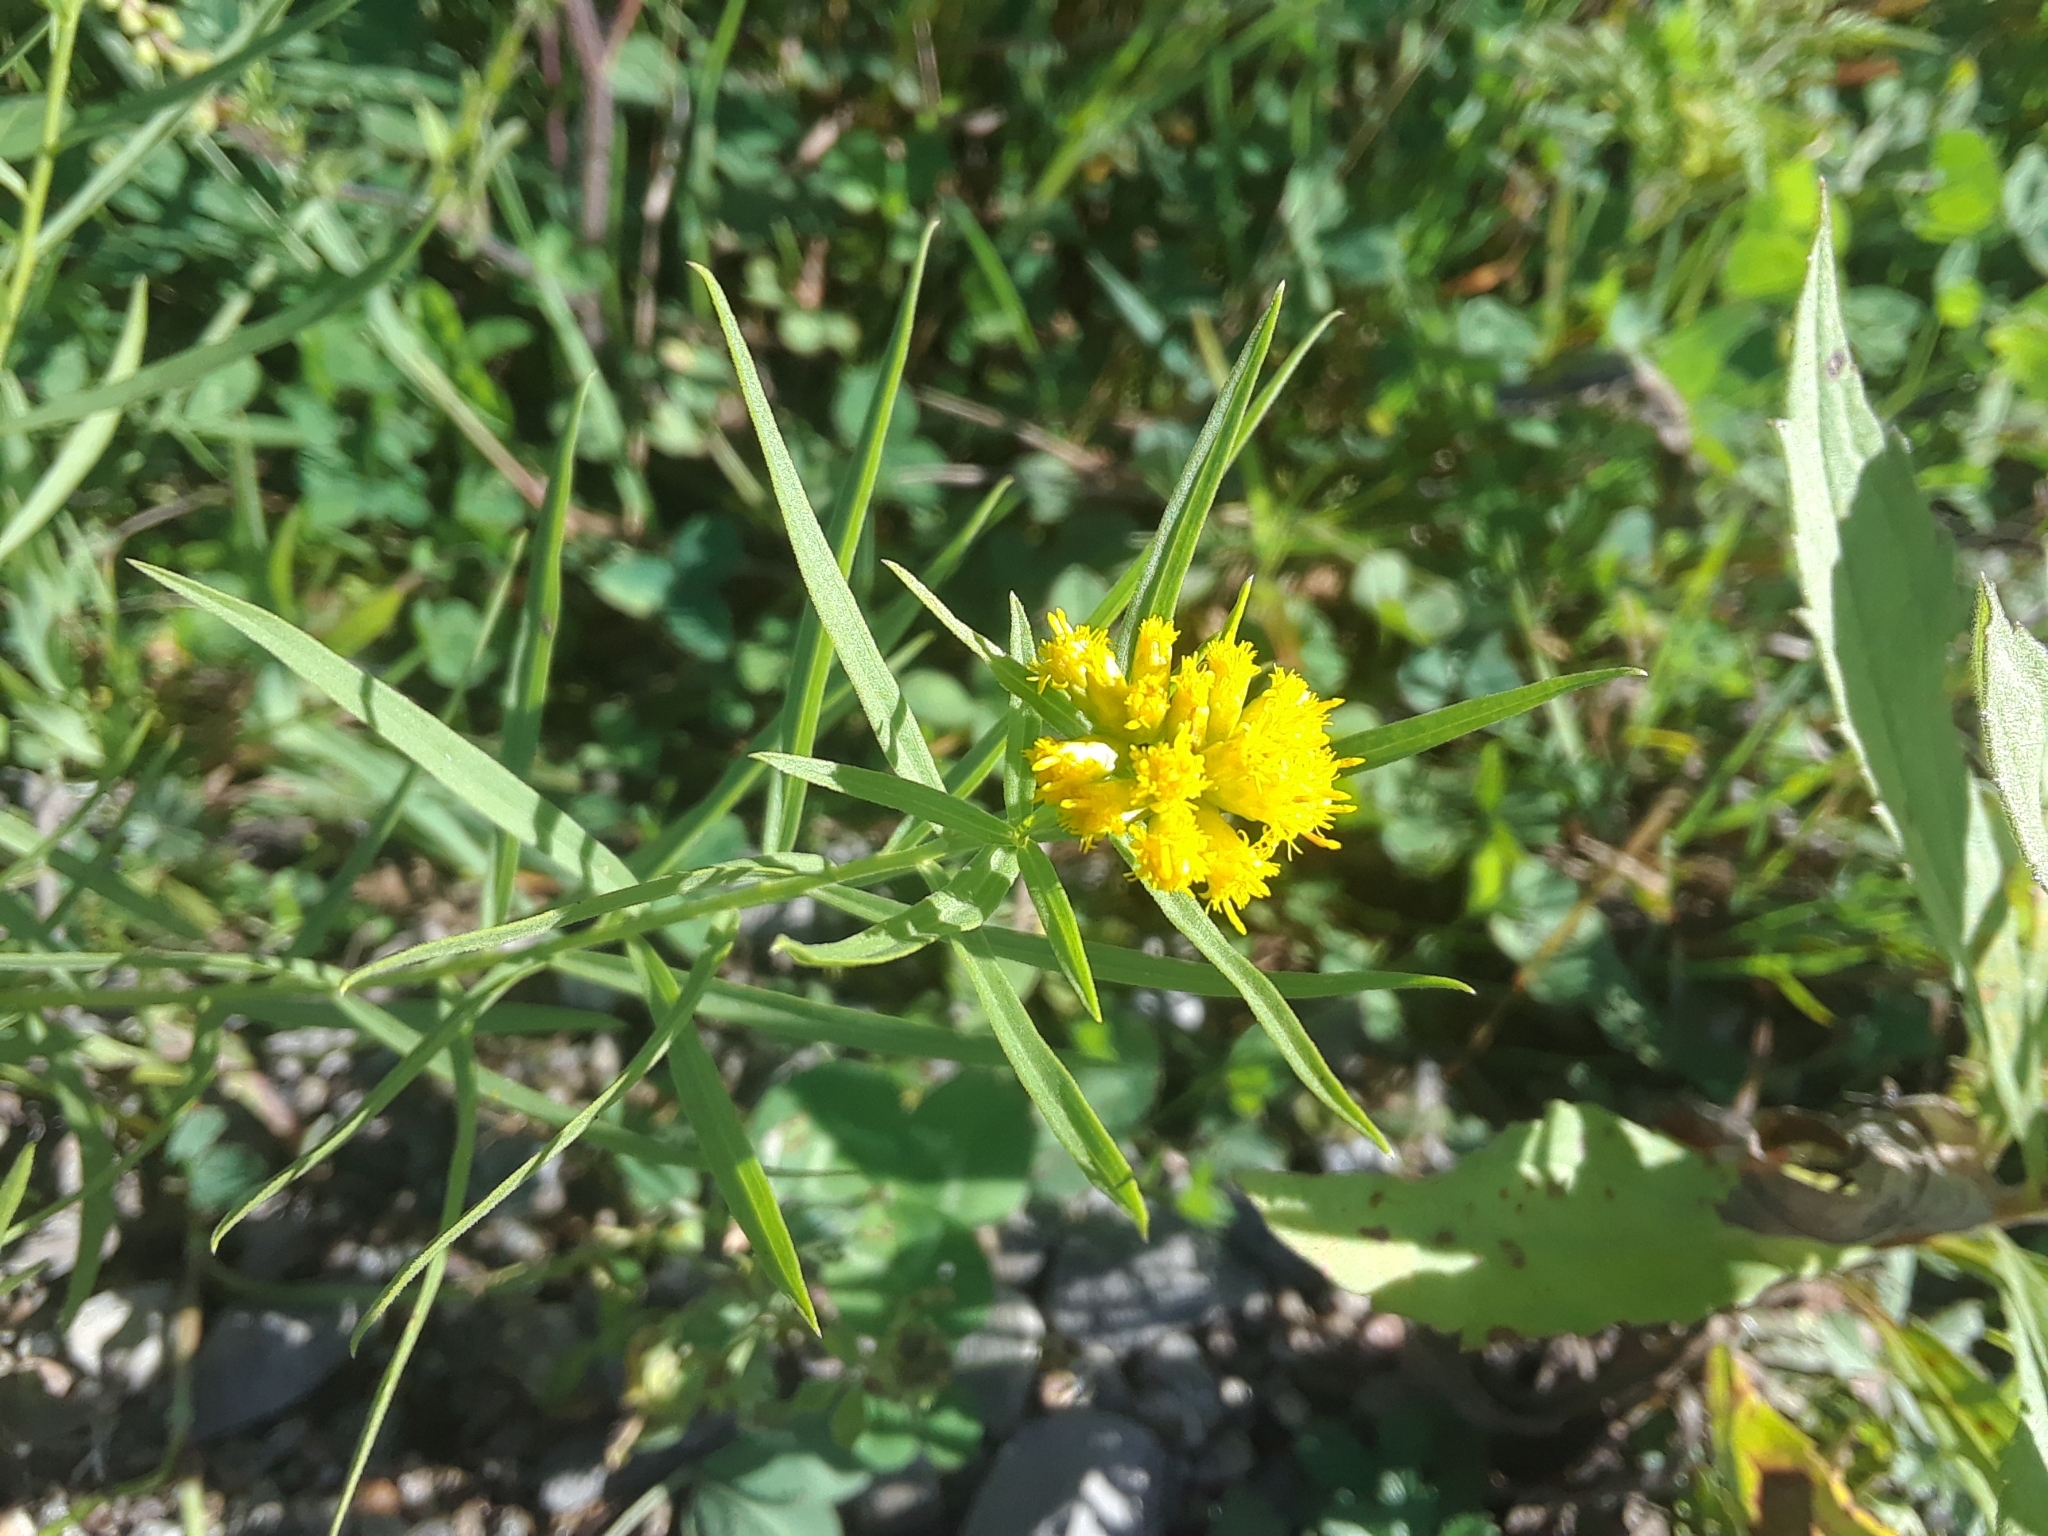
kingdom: Plantae
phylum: Tracheophyta
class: Magnoliopsida
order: Asterales
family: Asteraceae
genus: Euthamia
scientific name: Euthamia graminifolia
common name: Common goldentop
